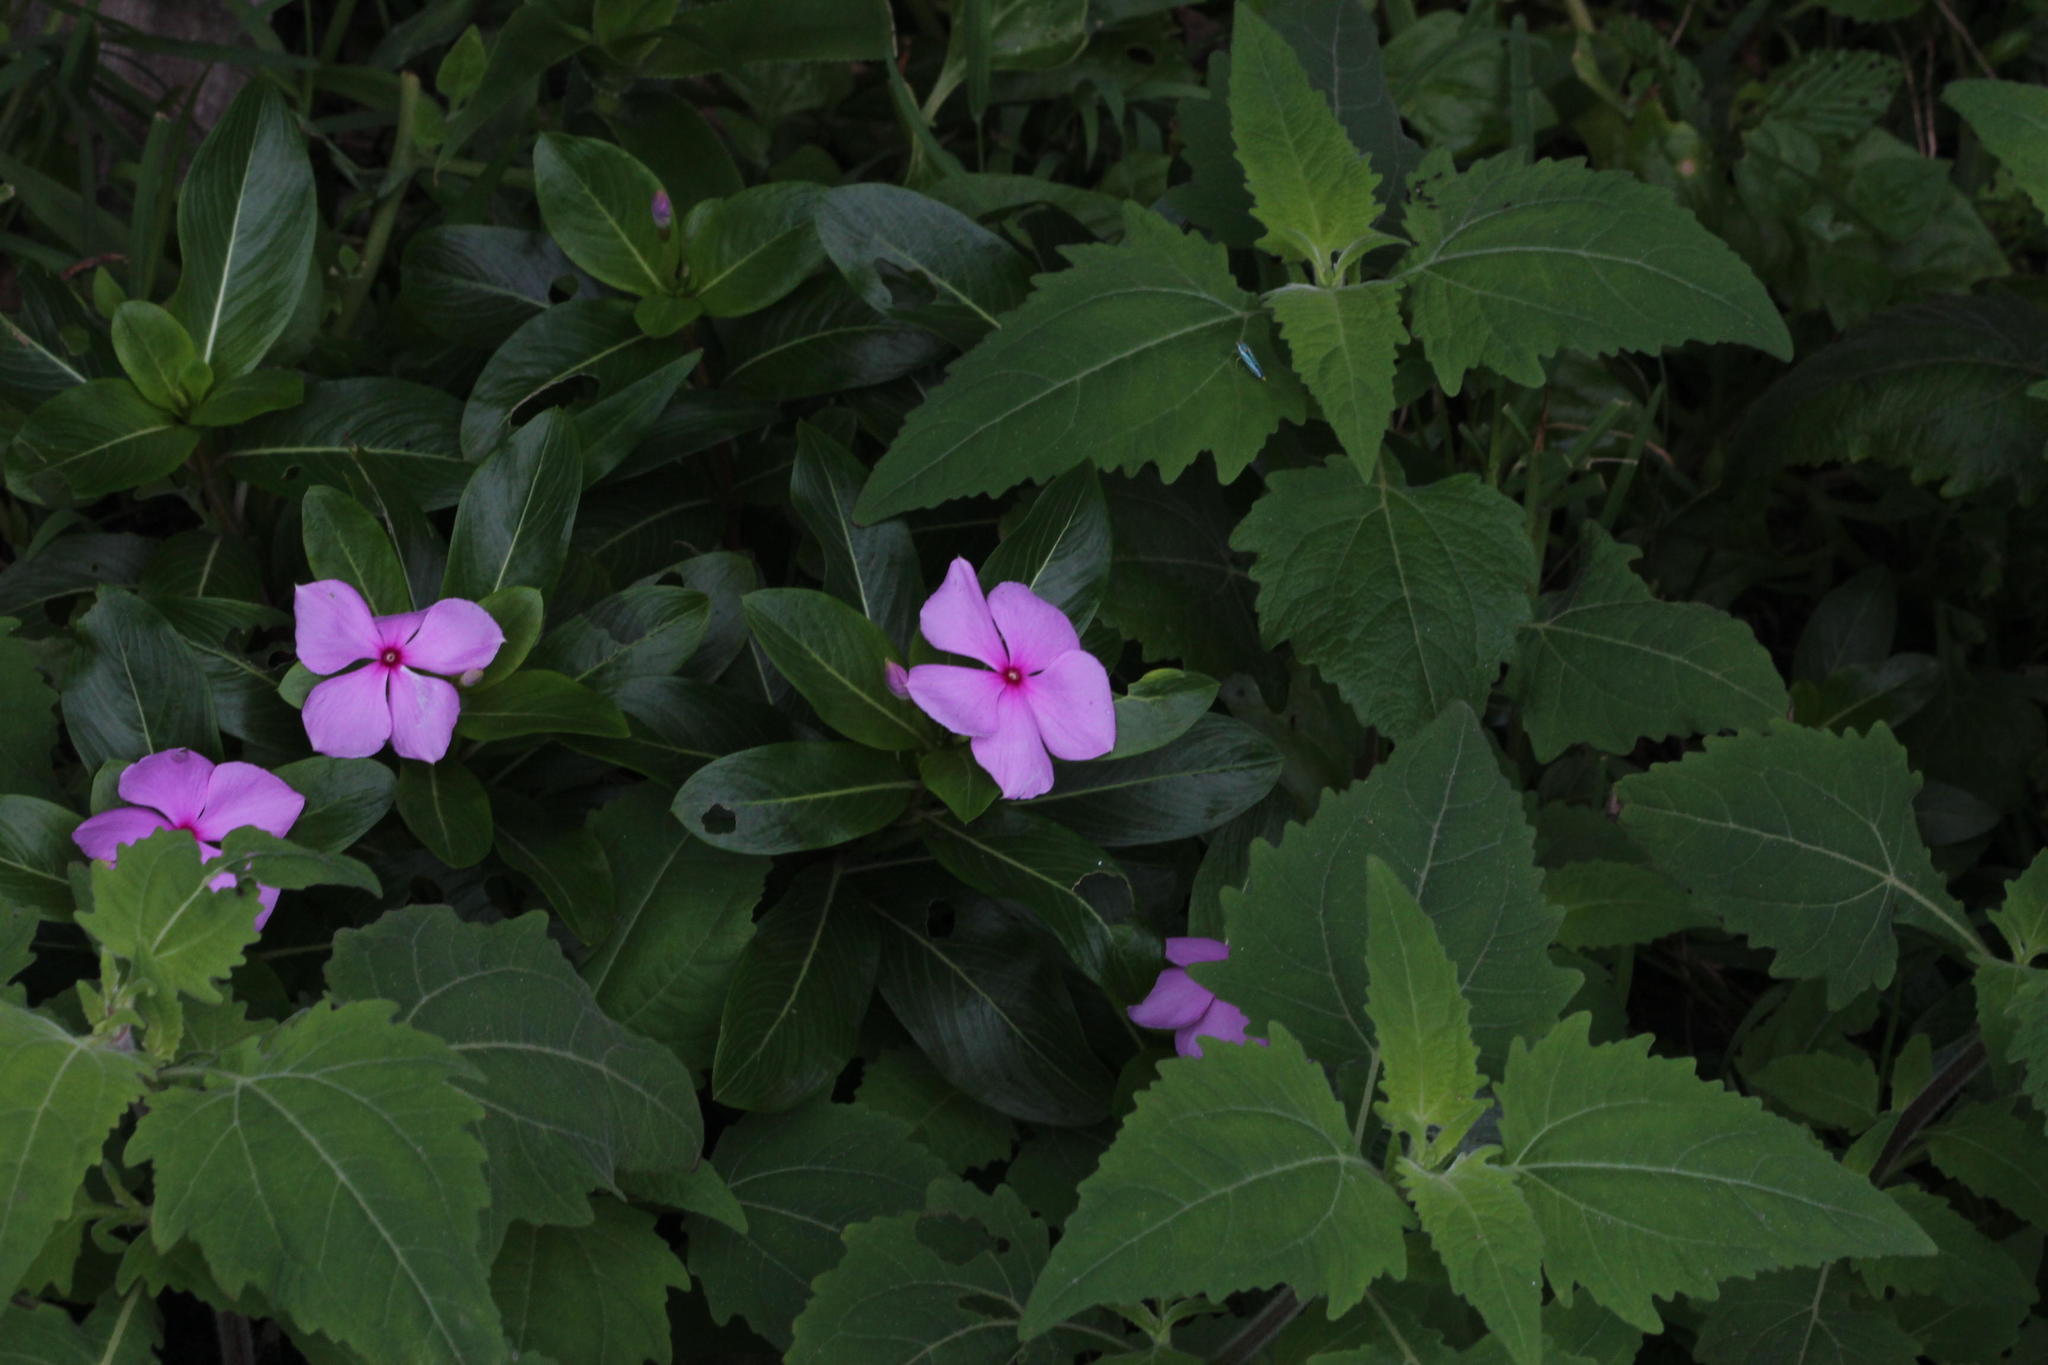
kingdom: Plantae
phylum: Tracheophyta
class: Magnoliopsida
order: Gentianales
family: Apocynaceae
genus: Catharanthus
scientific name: Catharanthus roseus
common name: Madagascar periwinkle
